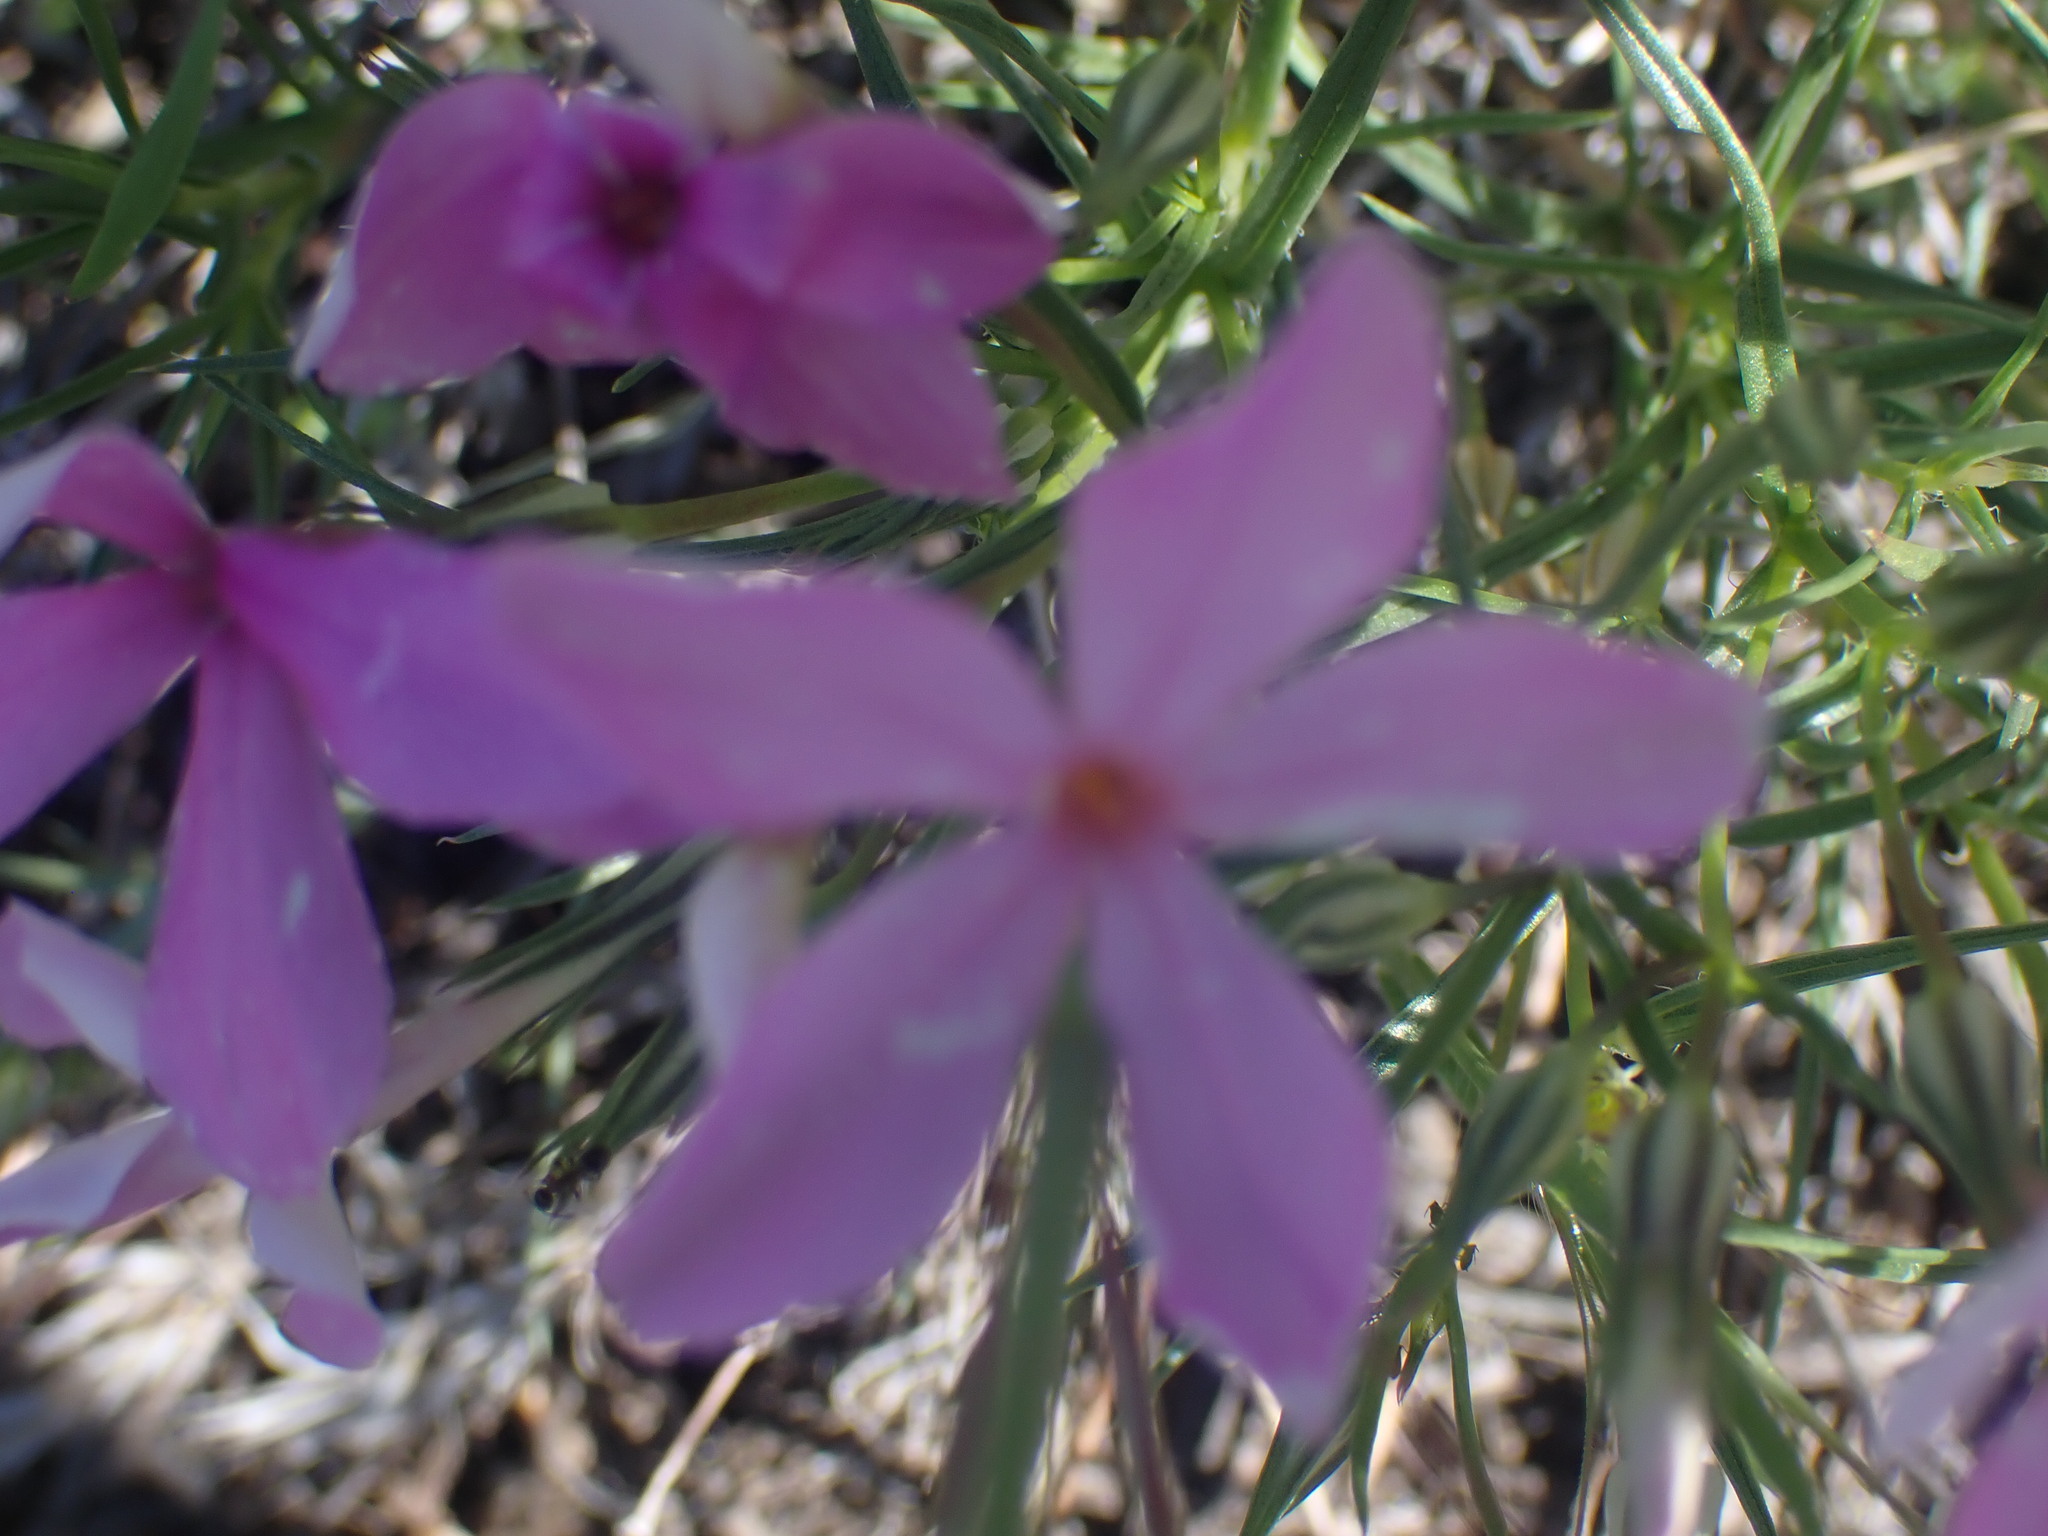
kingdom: Plantae
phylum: Tracheophyta
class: Magnoliopsida
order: Ericales
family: Polemoniaceae
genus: Phlox
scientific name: Phlox longifolia
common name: Longleaf phlox
